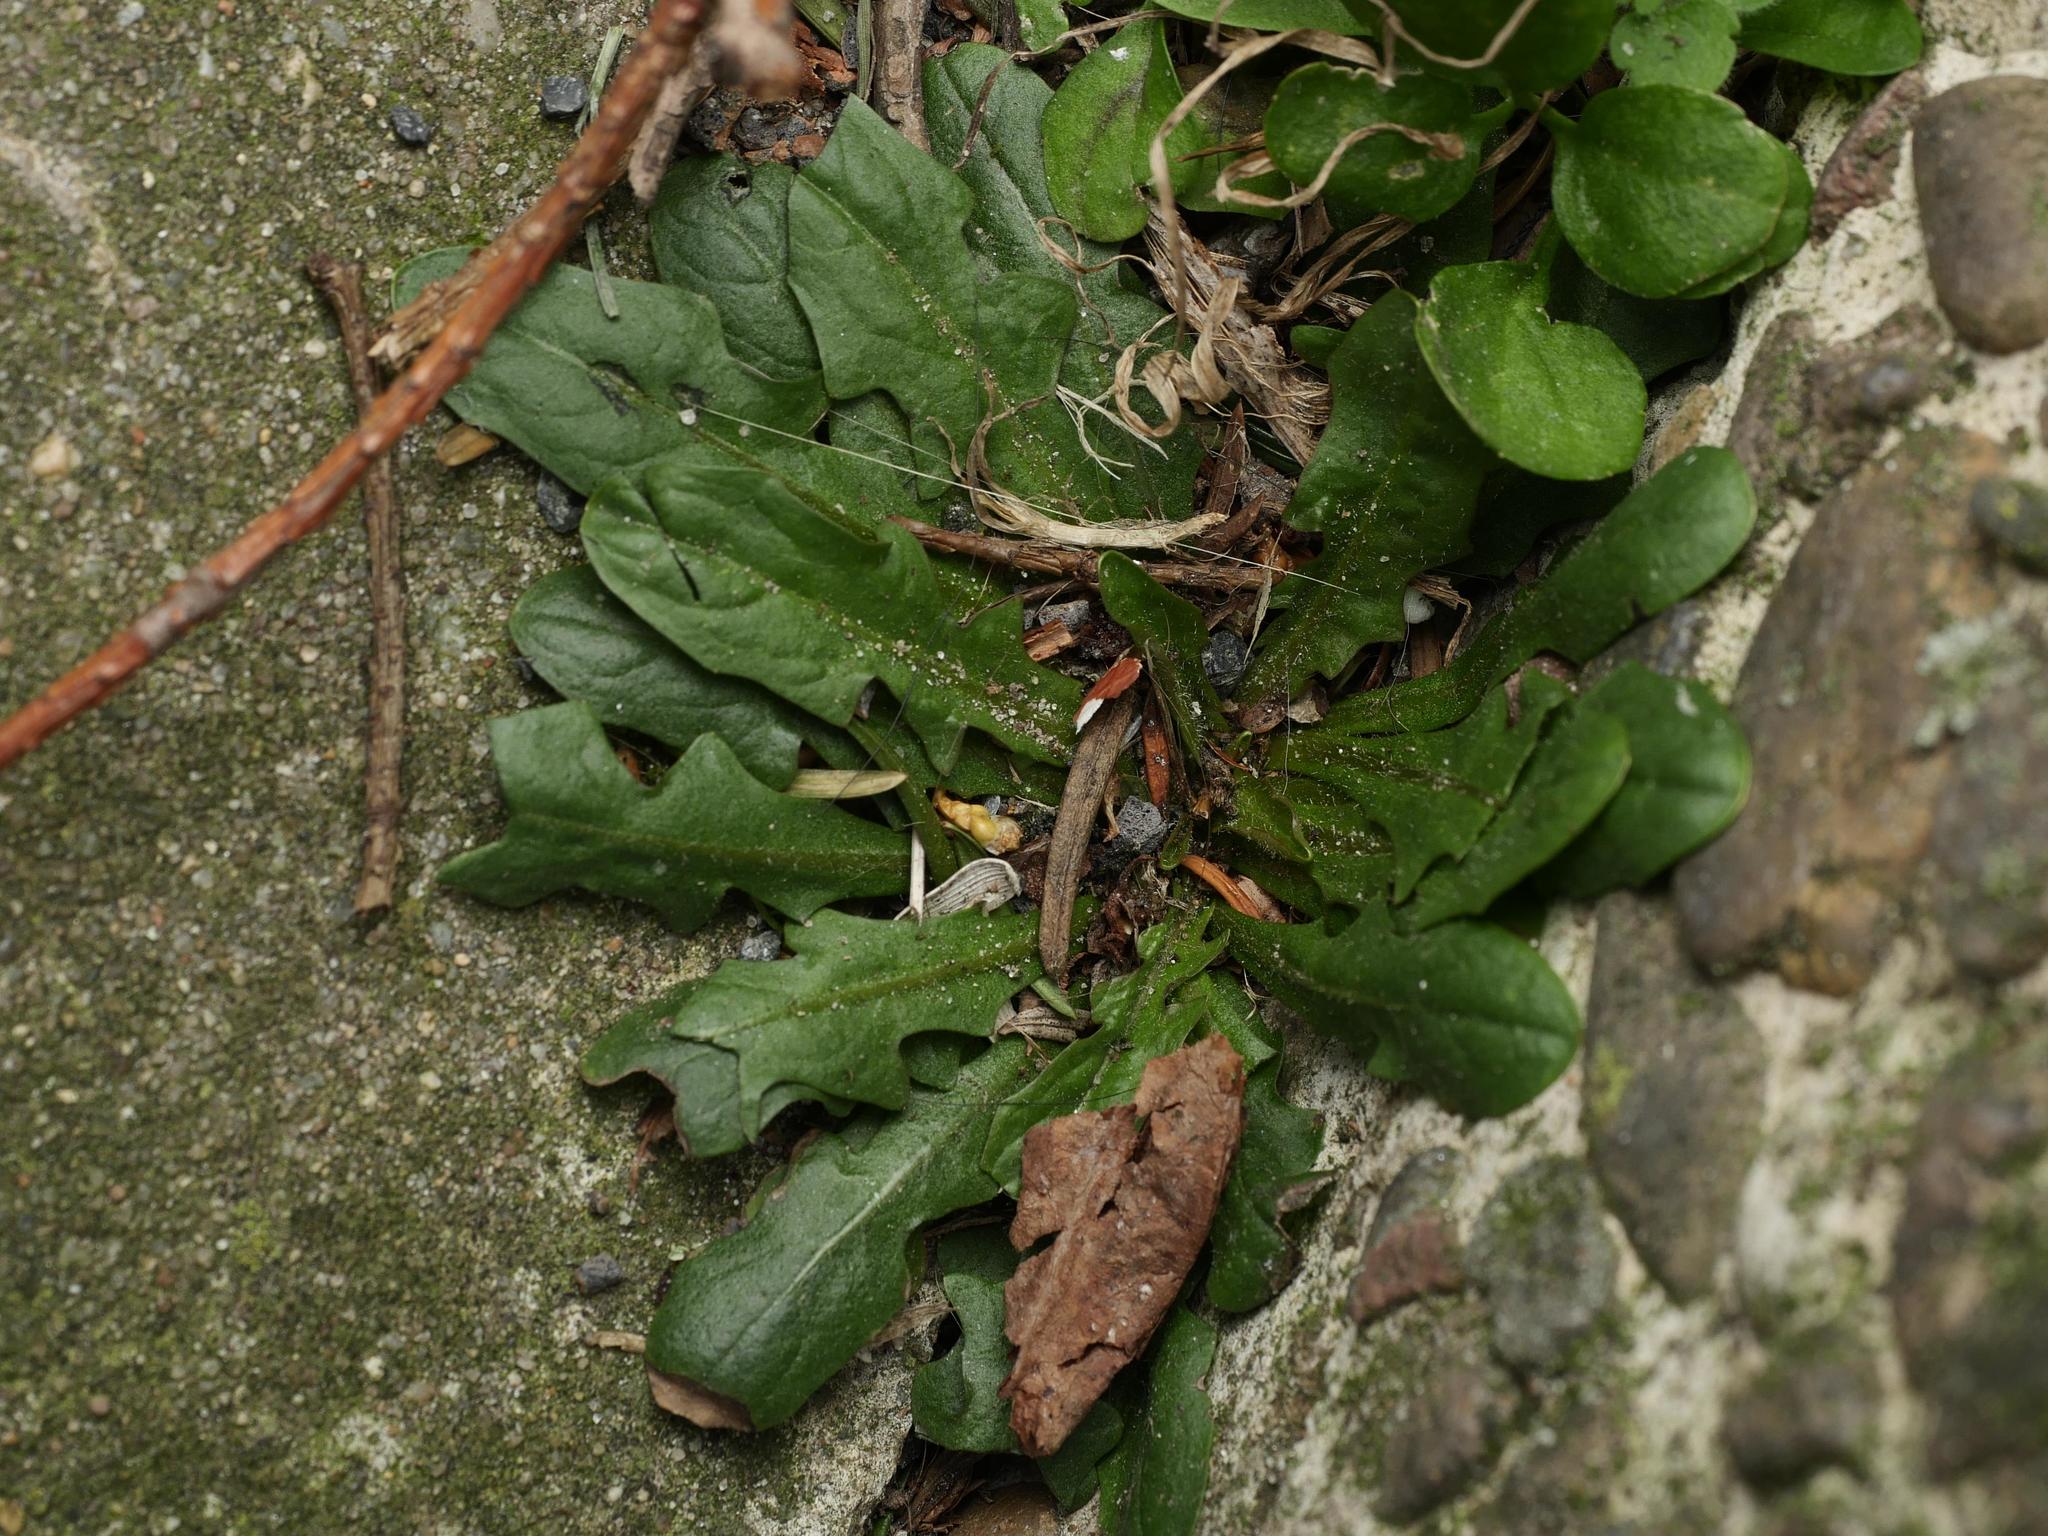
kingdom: Plantae
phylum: Tracheophyta
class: Magnoliopsida
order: Asterales
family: Asteraceae
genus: Hypochaeris
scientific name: Hypochaeris radicata
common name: Flatweed
